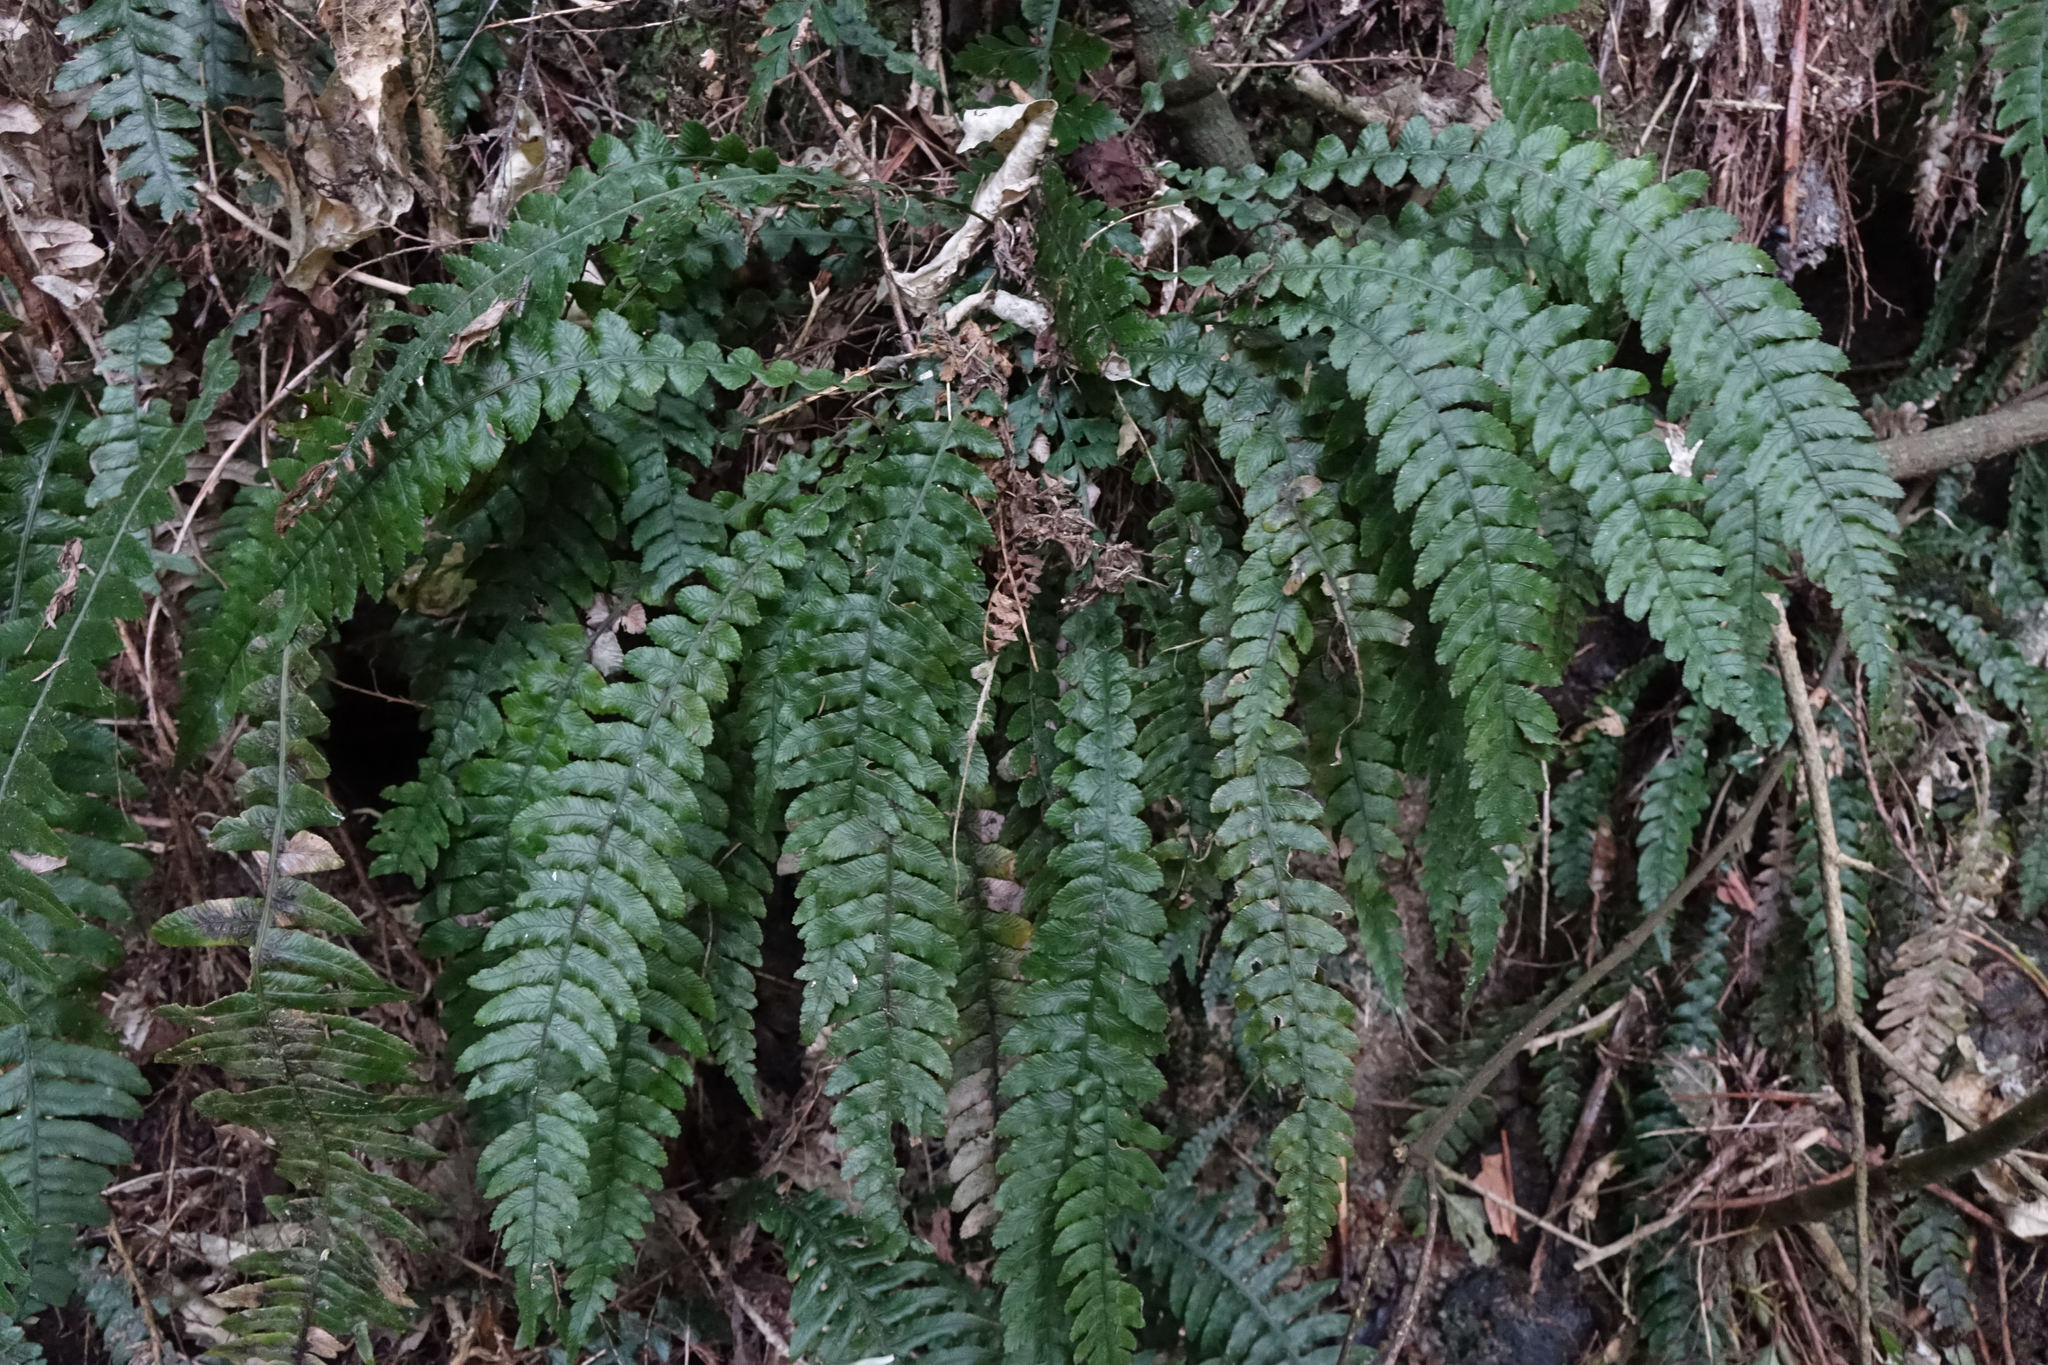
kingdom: Plantae
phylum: Tracheophyta
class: Polypodiopsida
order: Polypodiales
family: Blechnaceae
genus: Austroblechnum
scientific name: Austroblechnum lanceolatum
